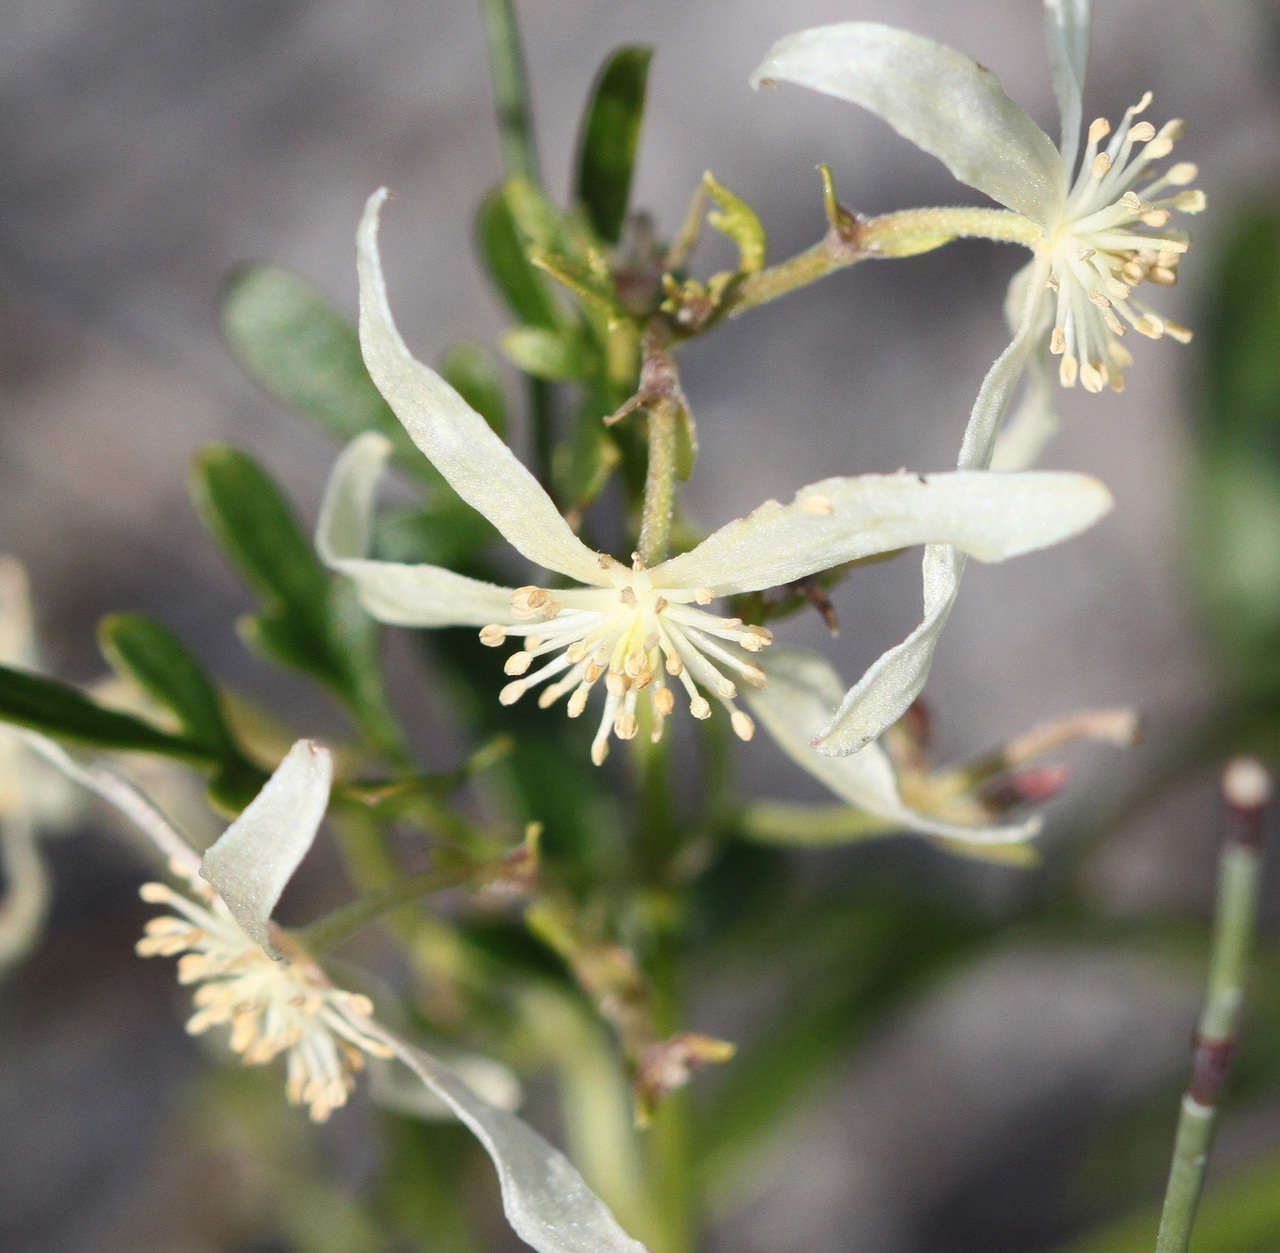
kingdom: Plantae
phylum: Tracheophyta
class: Magnoliopsida
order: Ranunculales
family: Ranunculaceae
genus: Clematis
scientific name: Clematis microphylla
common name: Headachevine
